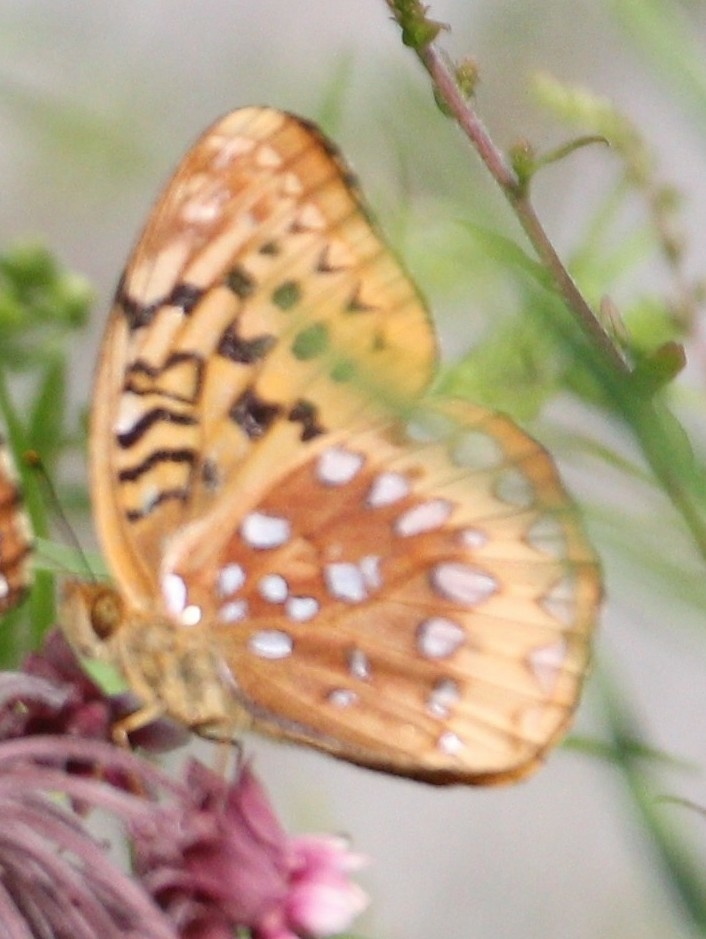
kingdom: Animalia
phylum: Arthropoda
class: Insecta
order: Lepidoptera
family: Nymphalidae
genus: Speyeria
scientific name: Speyeria cybele
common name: Great spangled fritillary
